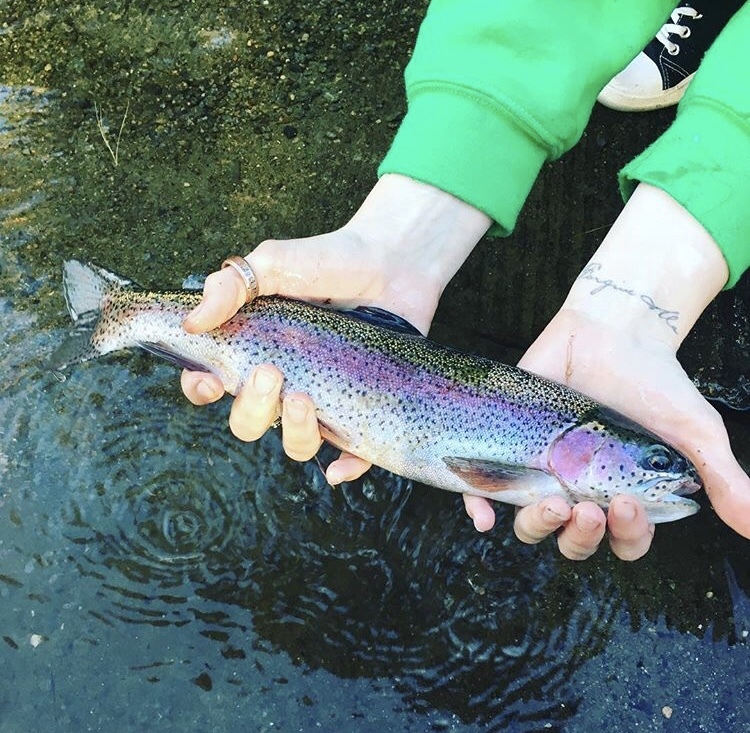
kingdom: Animalia
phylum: Chordata
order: Salmoniformes
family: Salmonidae
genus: Oncorhynchus
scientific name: Oncorhynchus mykiss
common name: Rainbow trout
